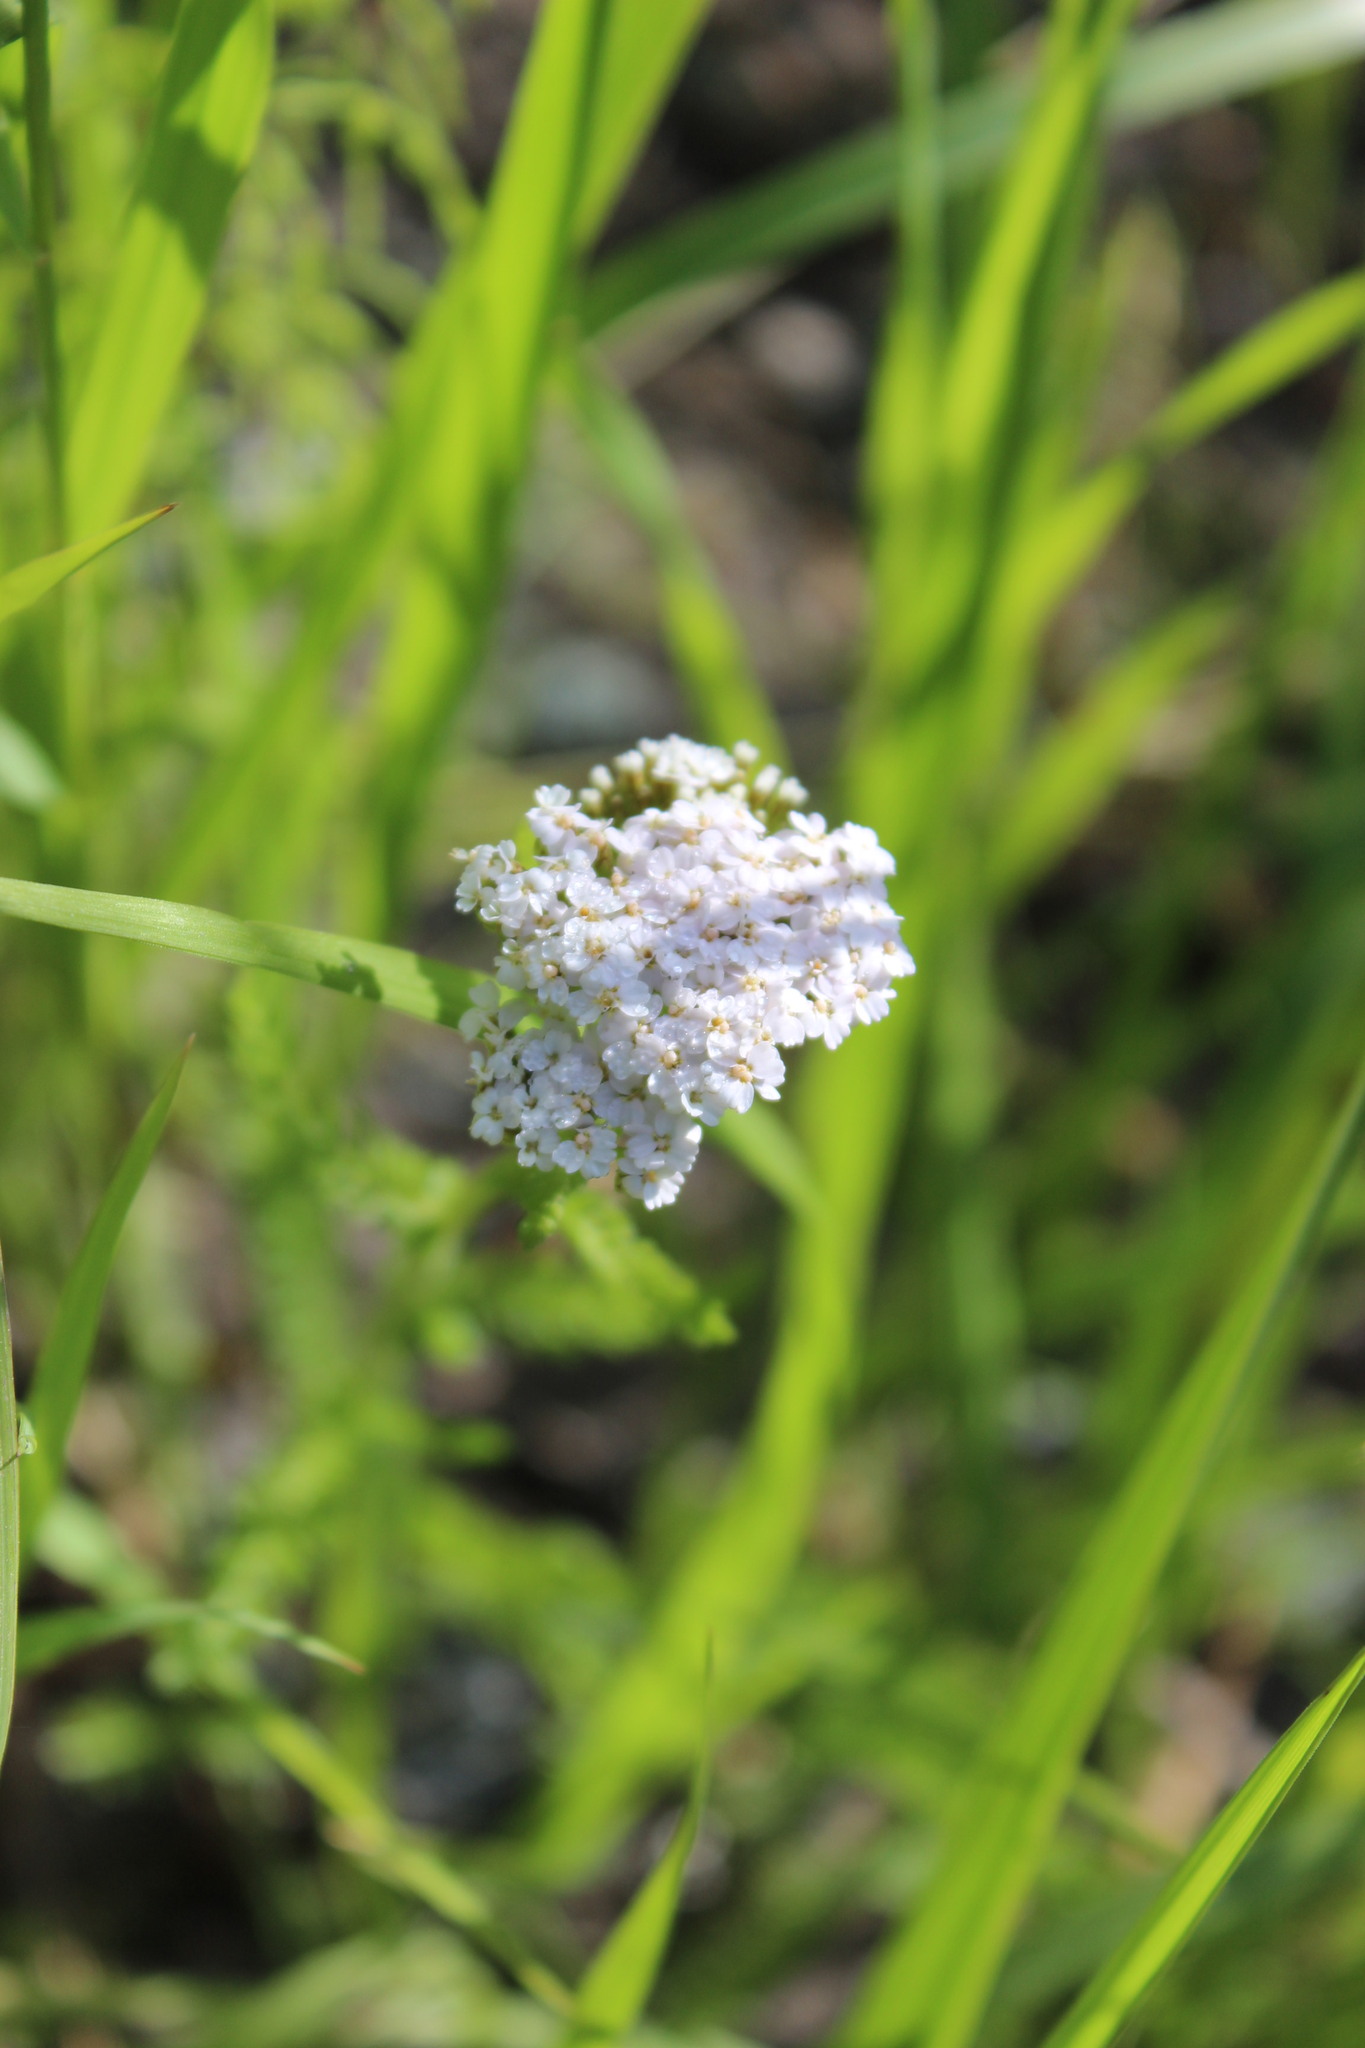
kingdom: Plantae
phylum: Tracheophyta
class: Magnoliopsida
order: Asterales
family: Asteraceae
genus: Achillea
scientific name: Achillea millefolium
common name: Yarrow
